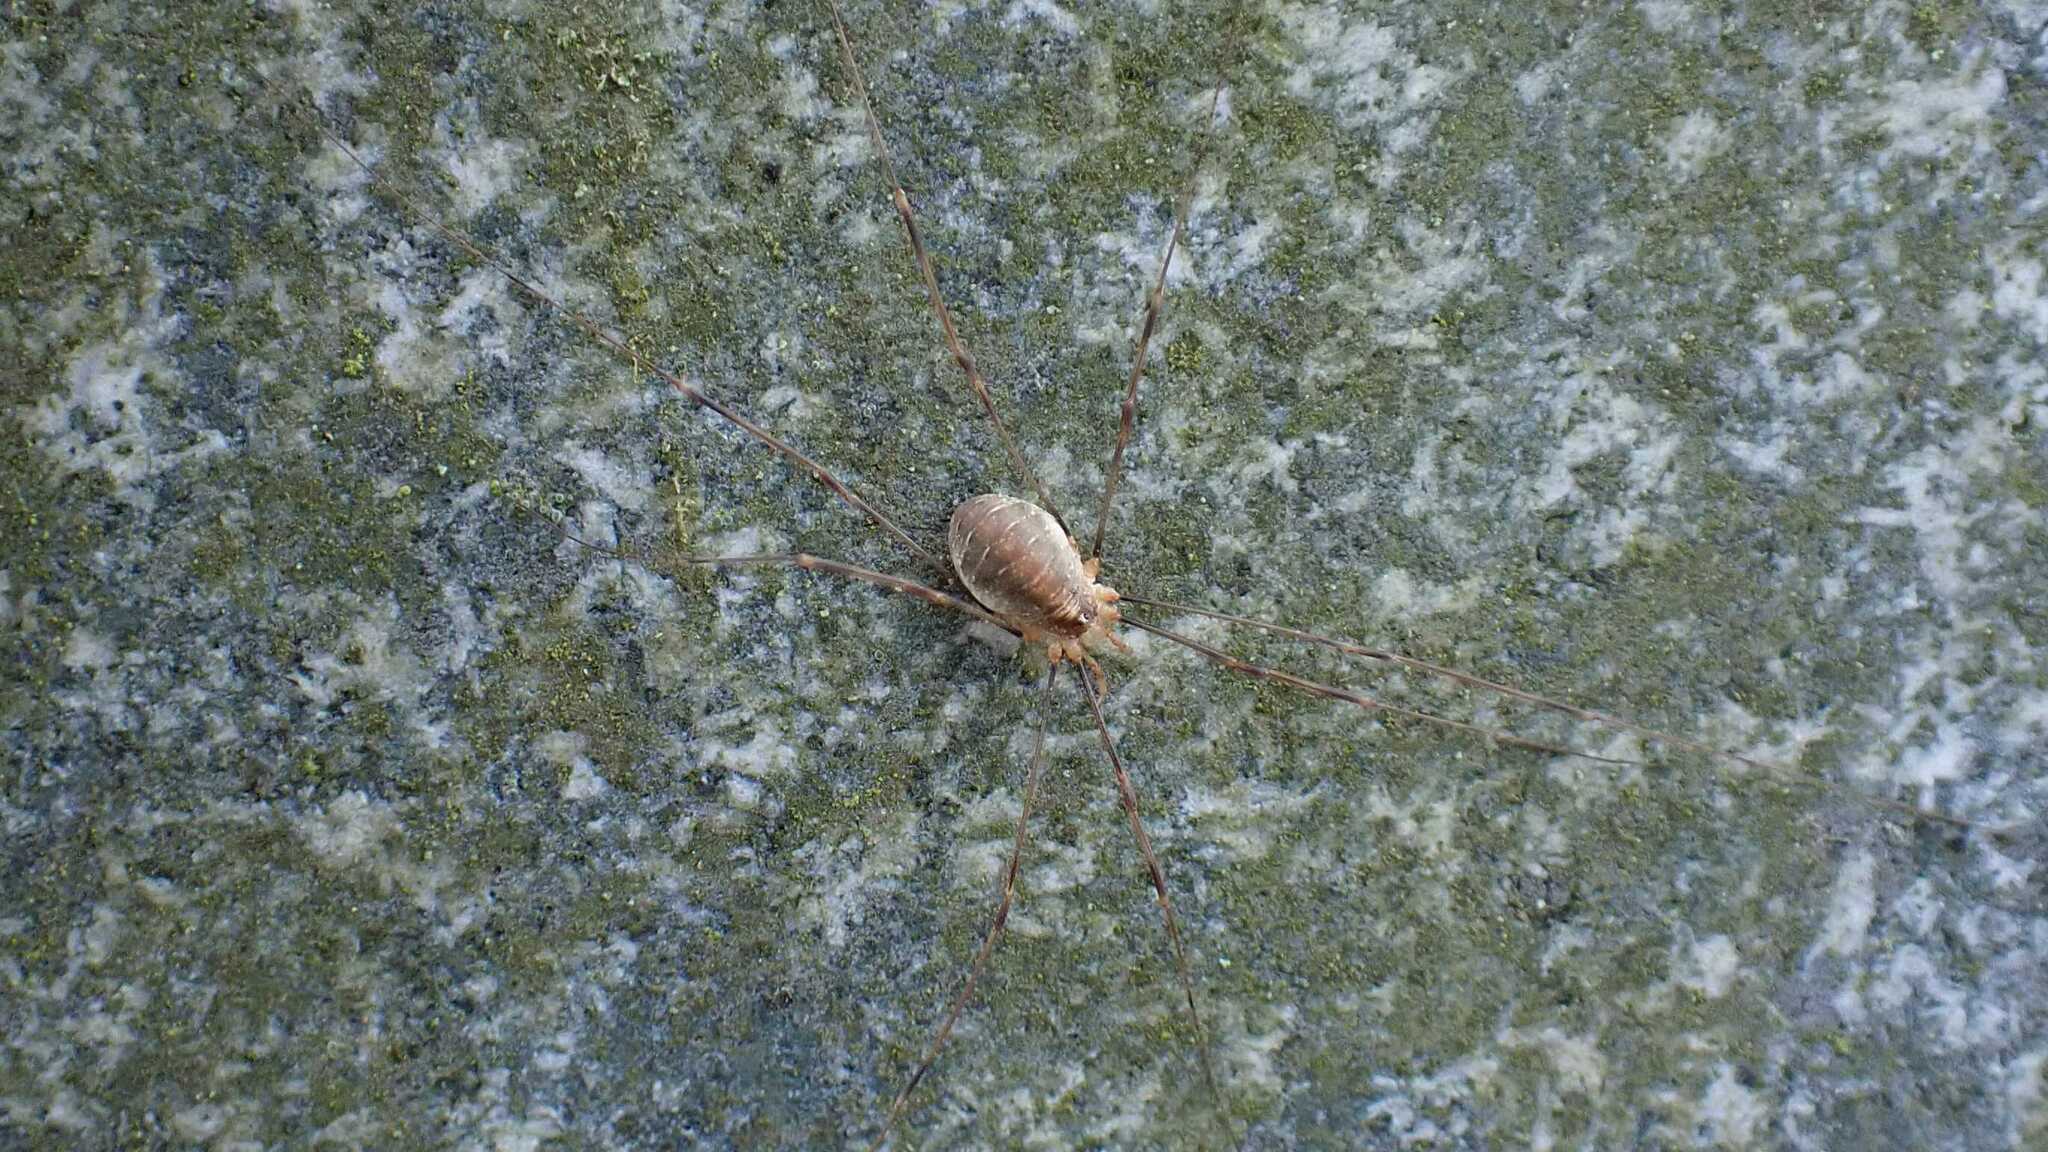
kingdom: Animalia
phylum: Arthropoda
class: Arachnida
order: Opiliones
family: Phalangiidae
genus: Opilio
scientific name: Opilio canestrinii
